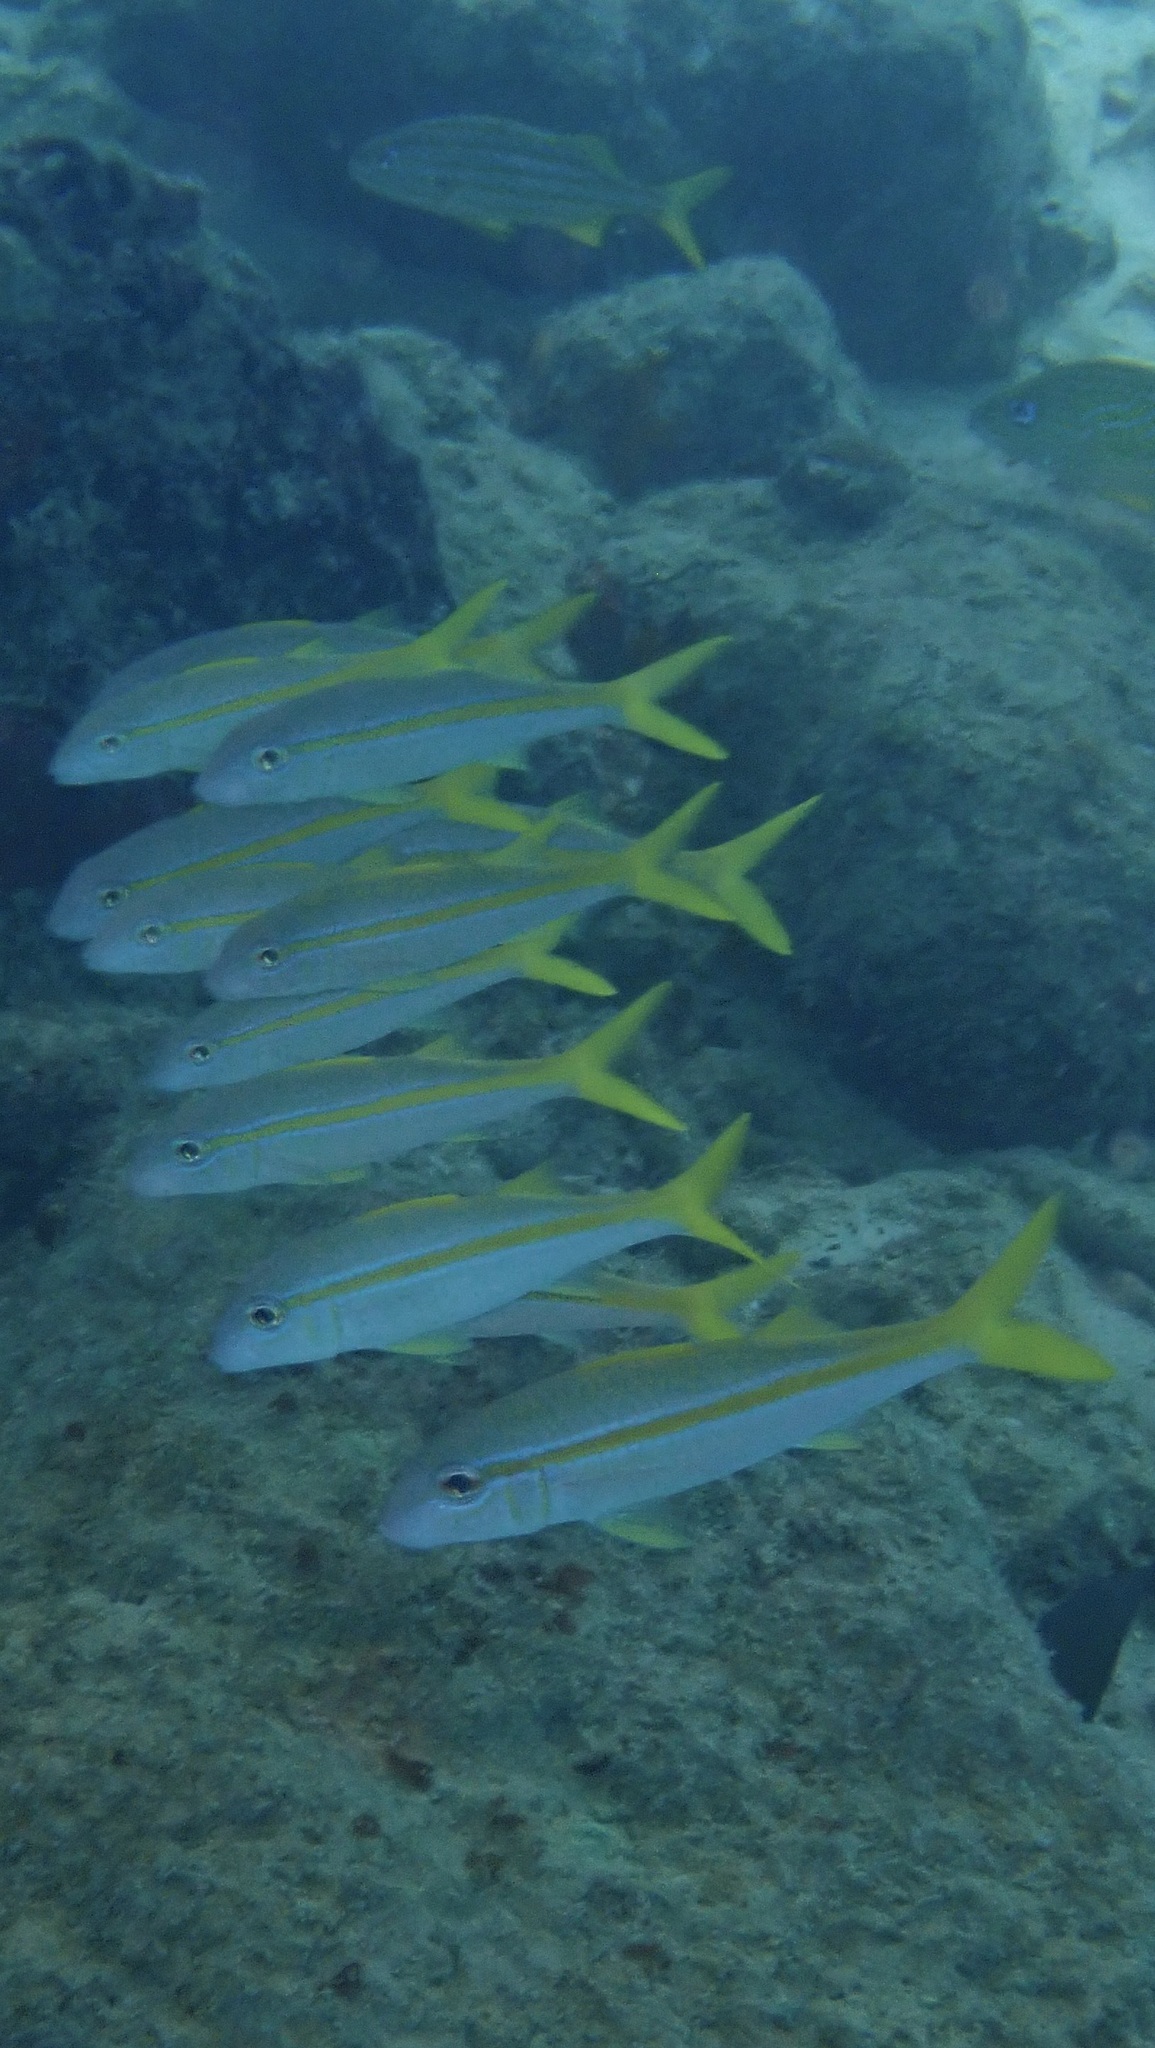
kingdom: Animalia
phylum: Chordata
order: Perciformes
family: Mullidae
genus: Mulloidichthys
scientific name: Mulloidichthys martinicus
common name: Yellow goatfish
